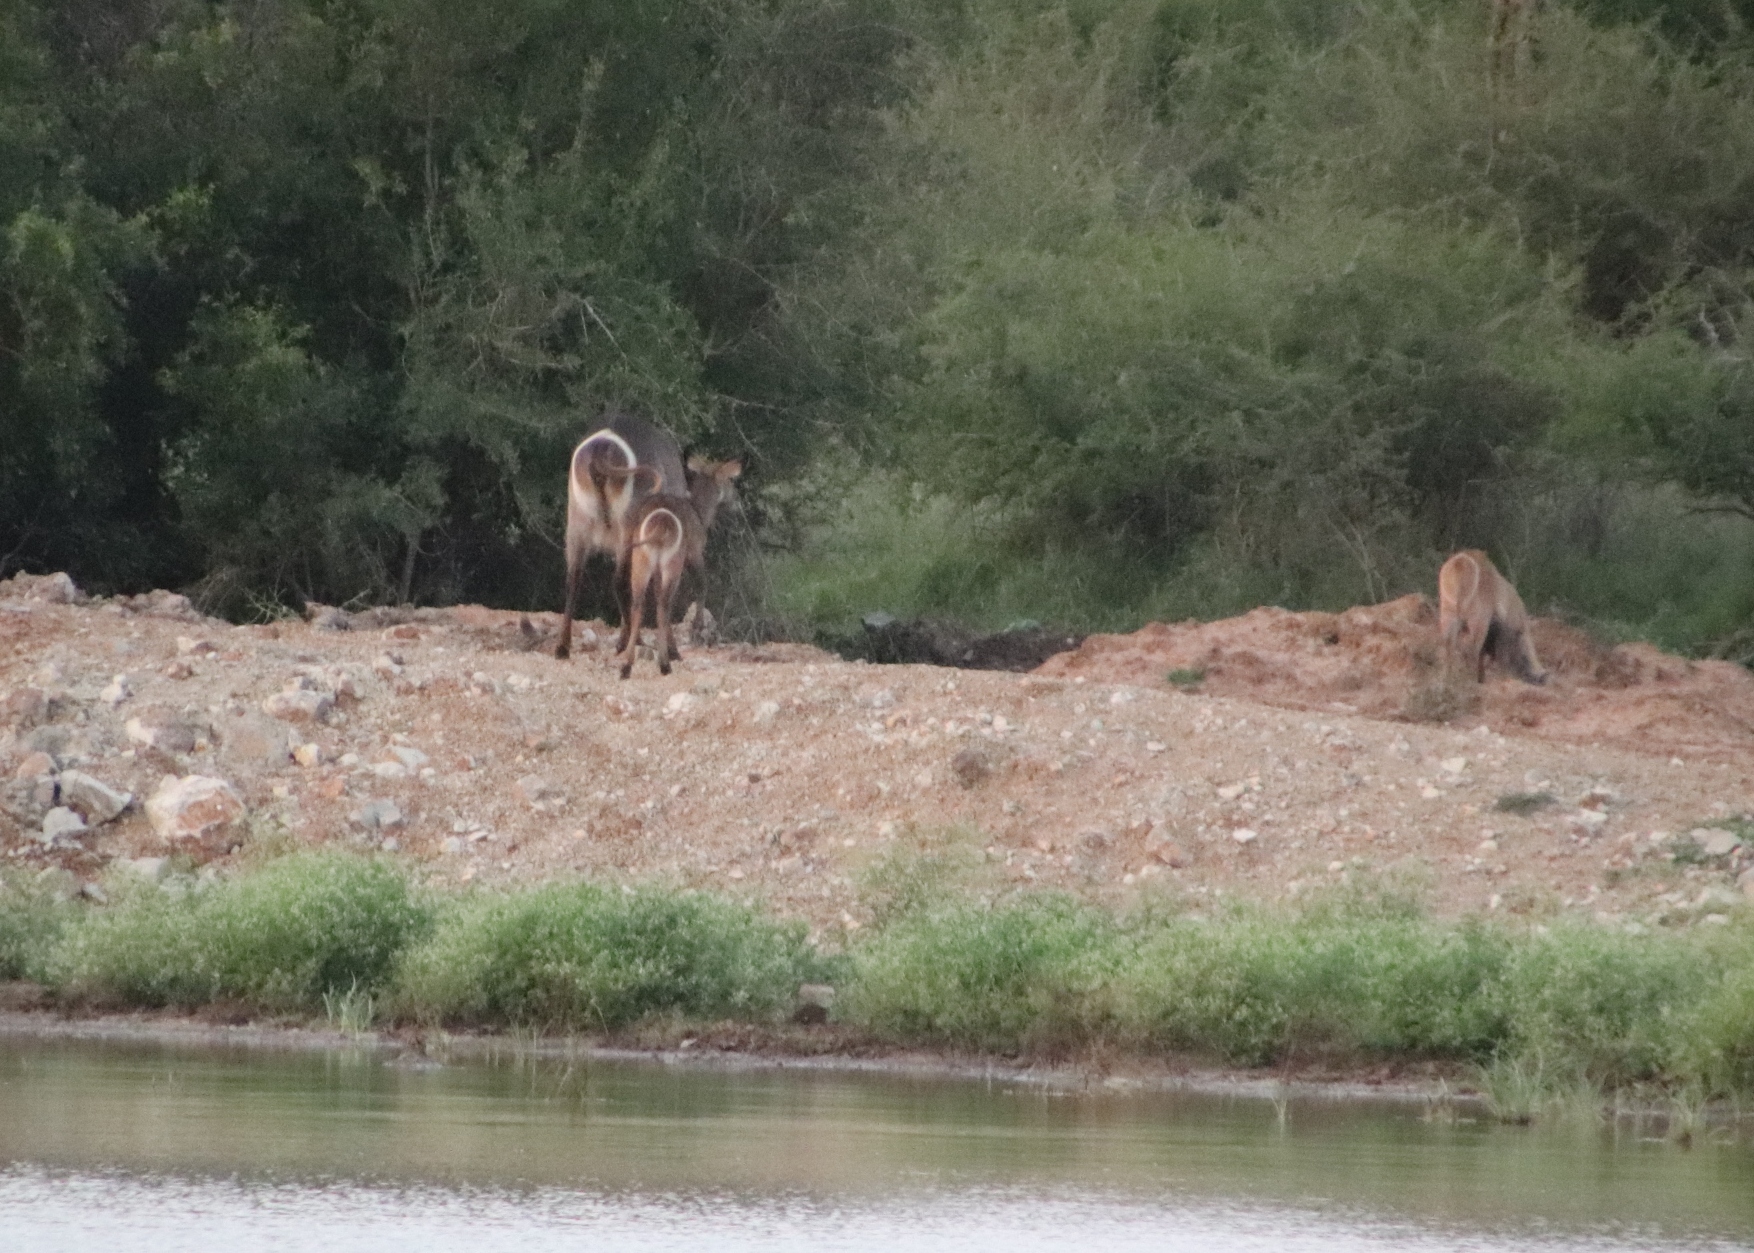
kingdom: Animalia
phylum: Chordata
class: Mammalia
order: Artiodactyla
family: Bovidae
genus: Kobus
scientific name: Kobus ellipsiprymnus
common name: Waterbuck
